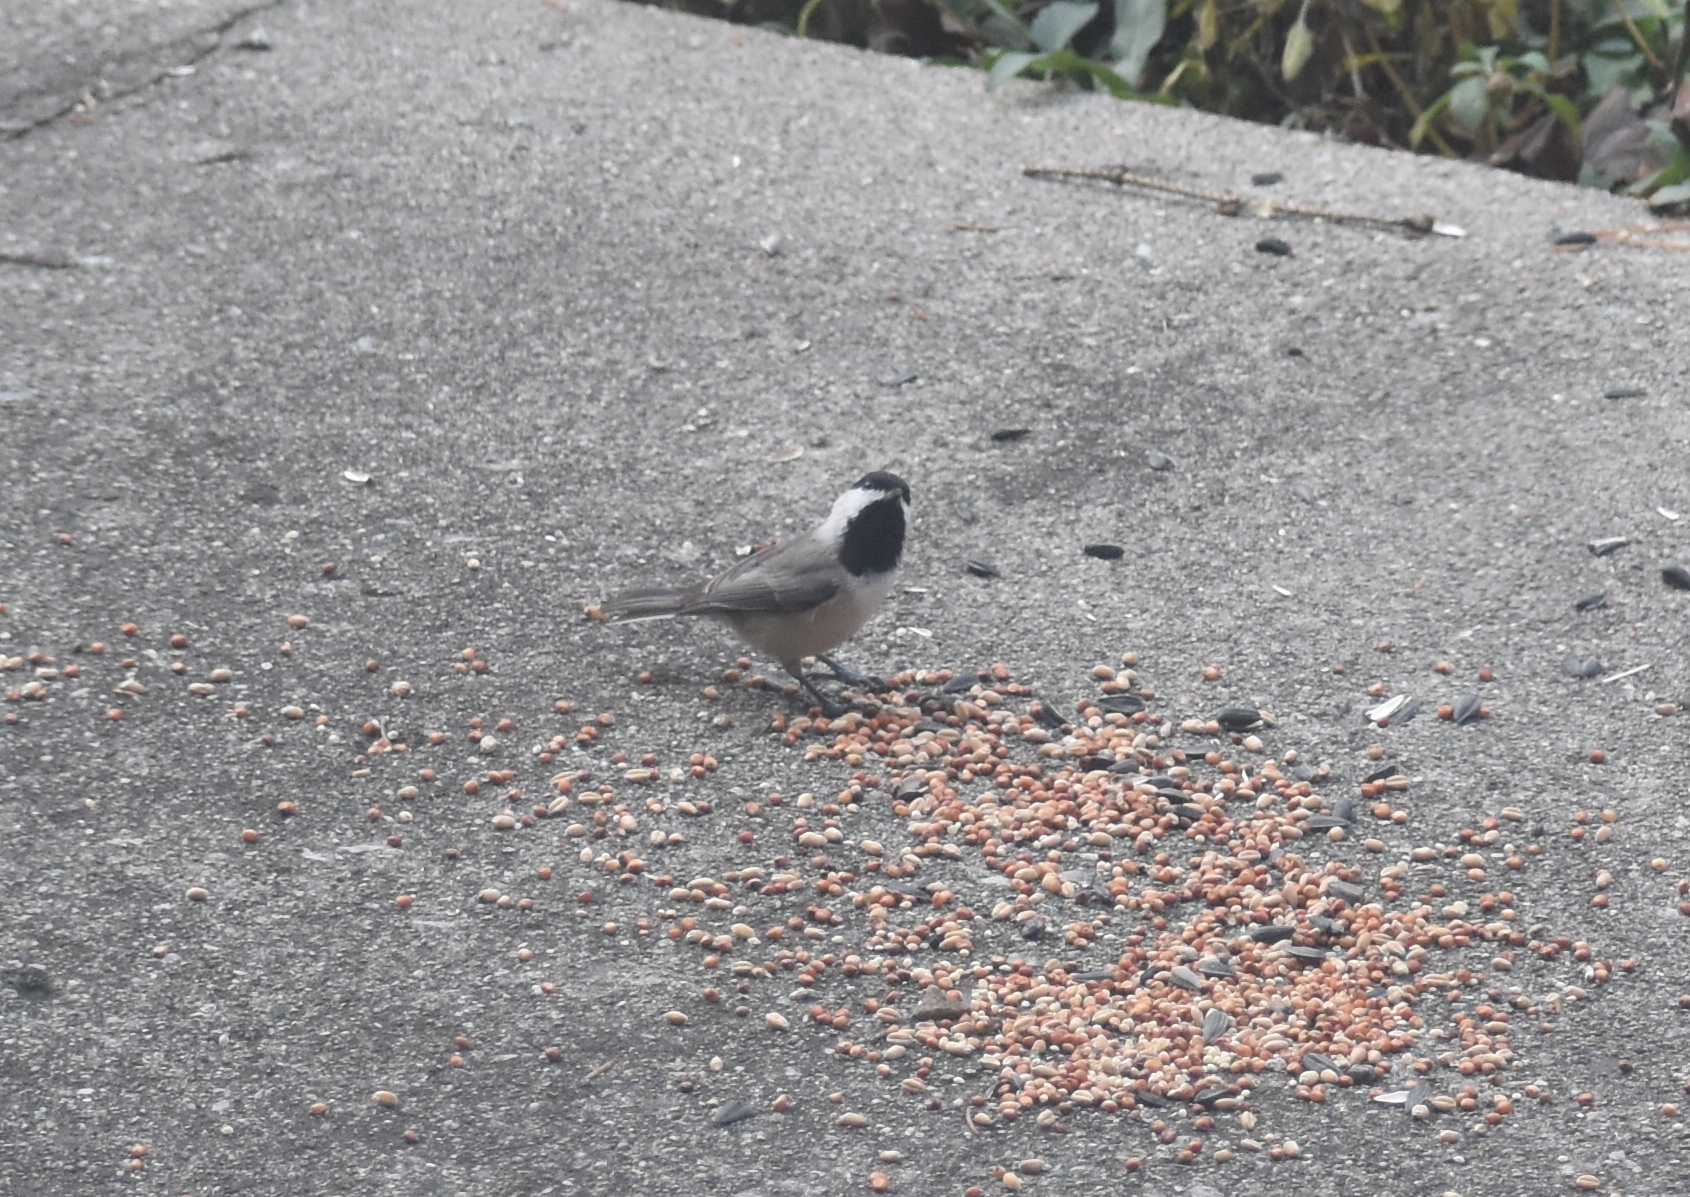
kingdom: Animalia
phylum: Chordata
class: Aves
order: Passeriformes
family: Paridae
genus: Poecile
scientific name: Poecile carolinensis
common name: Carolina chickadee
